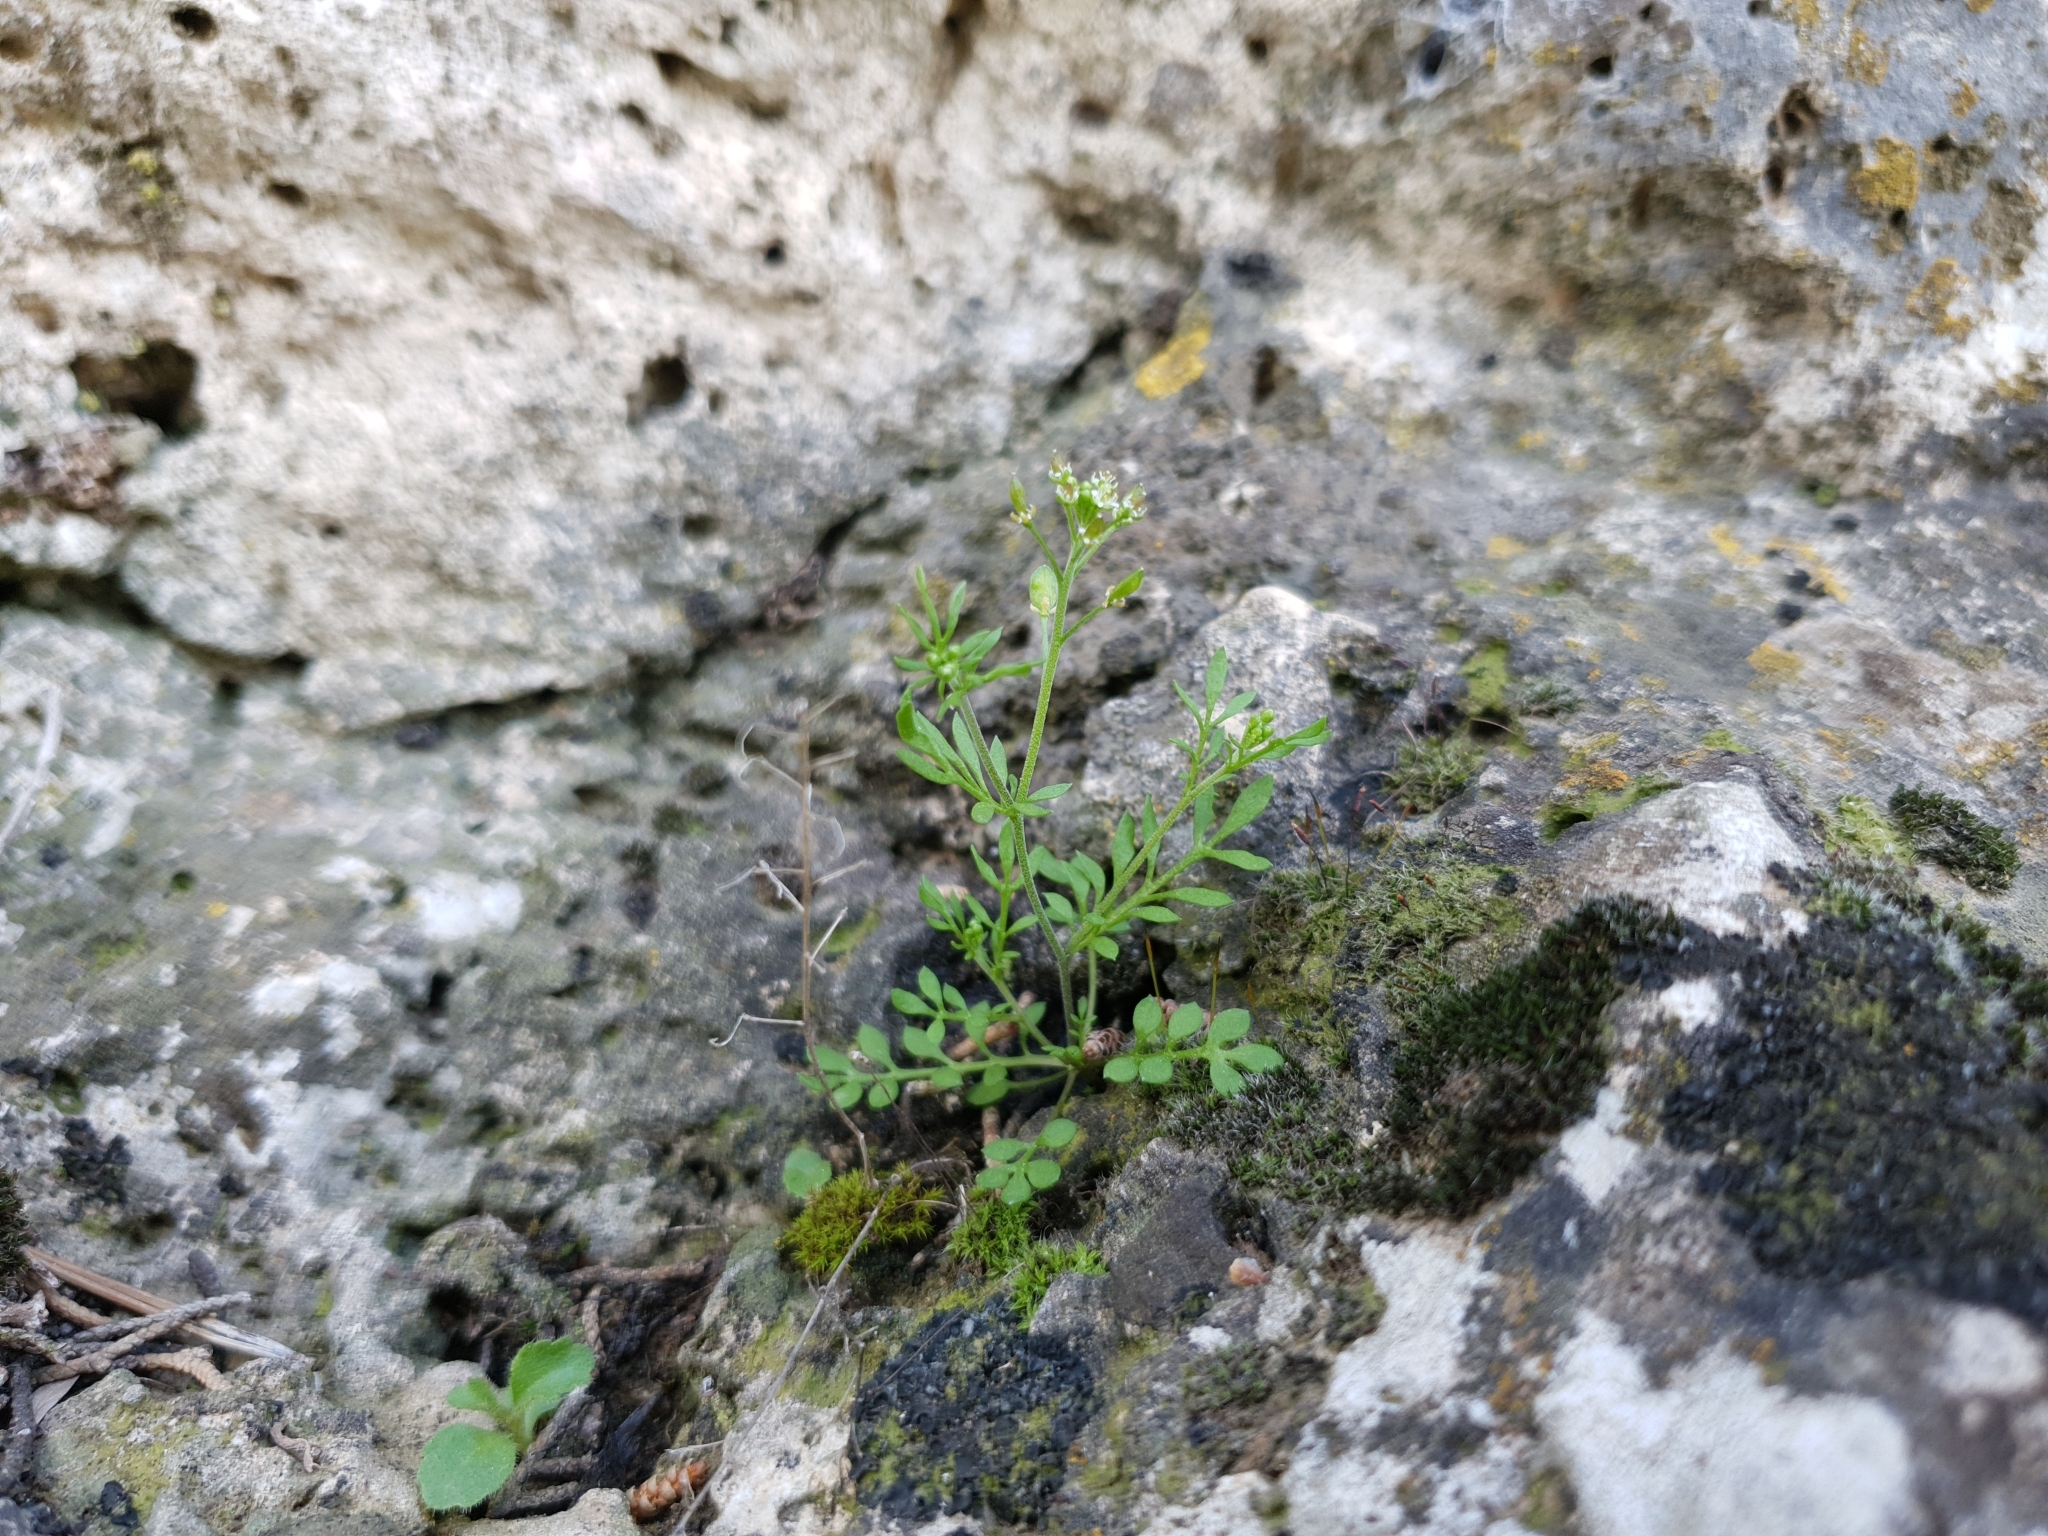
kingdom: Plantae
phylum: Tracheophyta
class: Magnoliopsida
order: Brassicales
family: Brassicaceae
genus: Hornungia
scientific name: Hornungia petraea
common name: Hutchinsia
